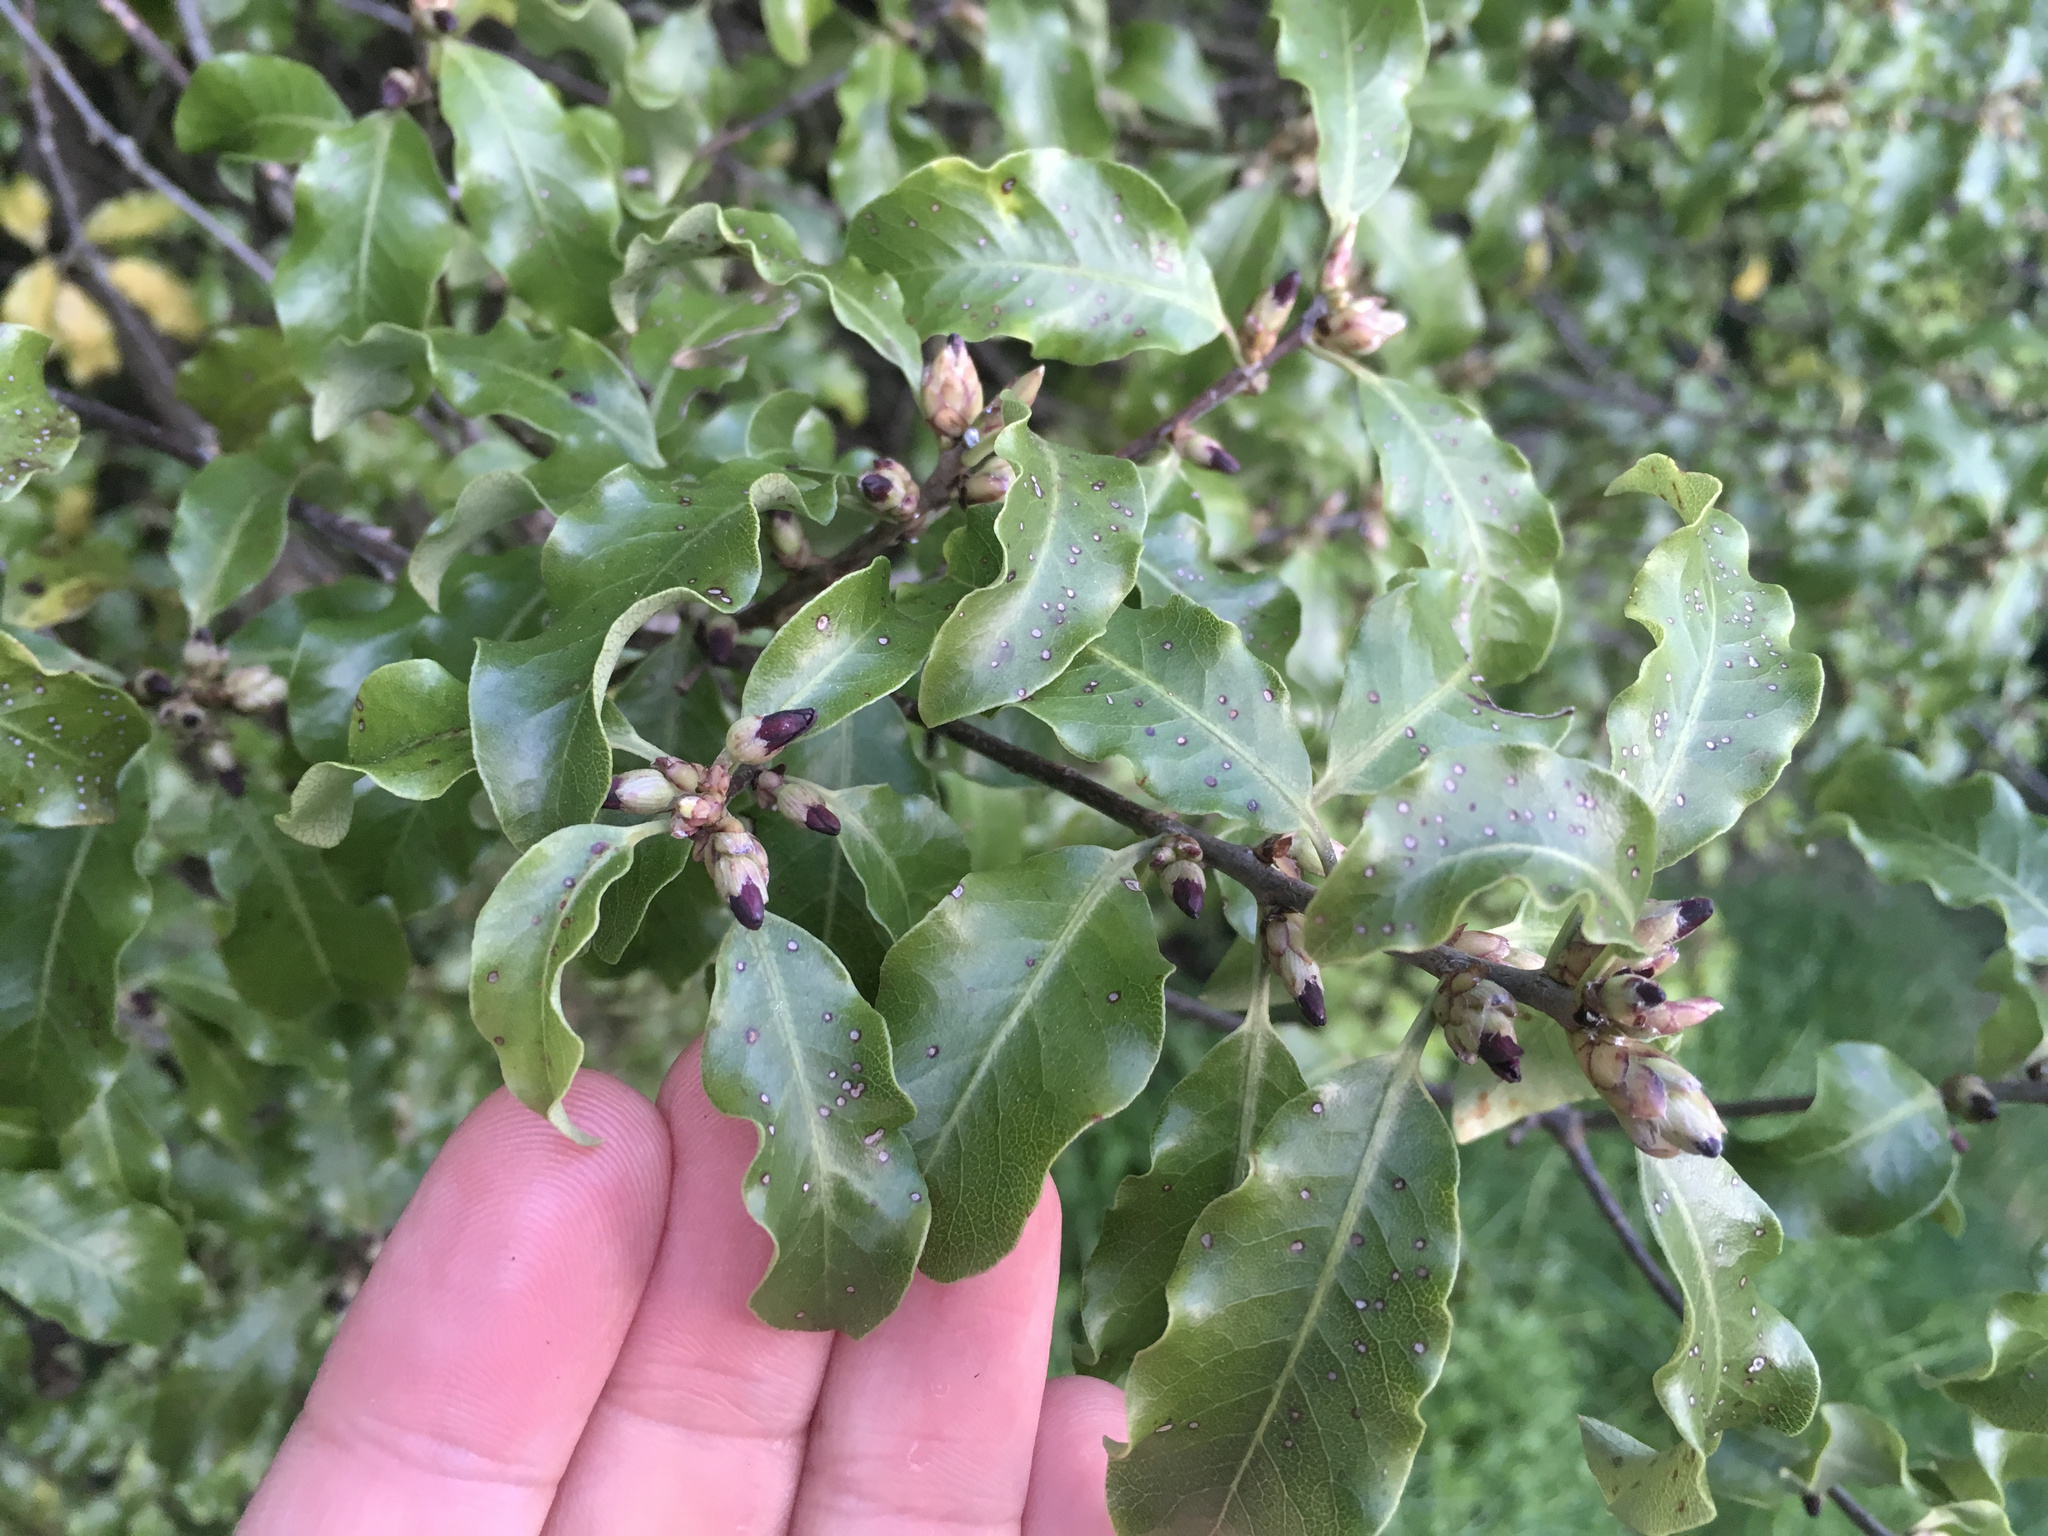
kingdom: Plantae
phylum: Tracheophyta
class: Magnoliopsida
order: Apiales
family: Pittosporaceae
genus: Pittosporum
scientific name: Pittosporum tenuifolium
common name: Kohuhu
